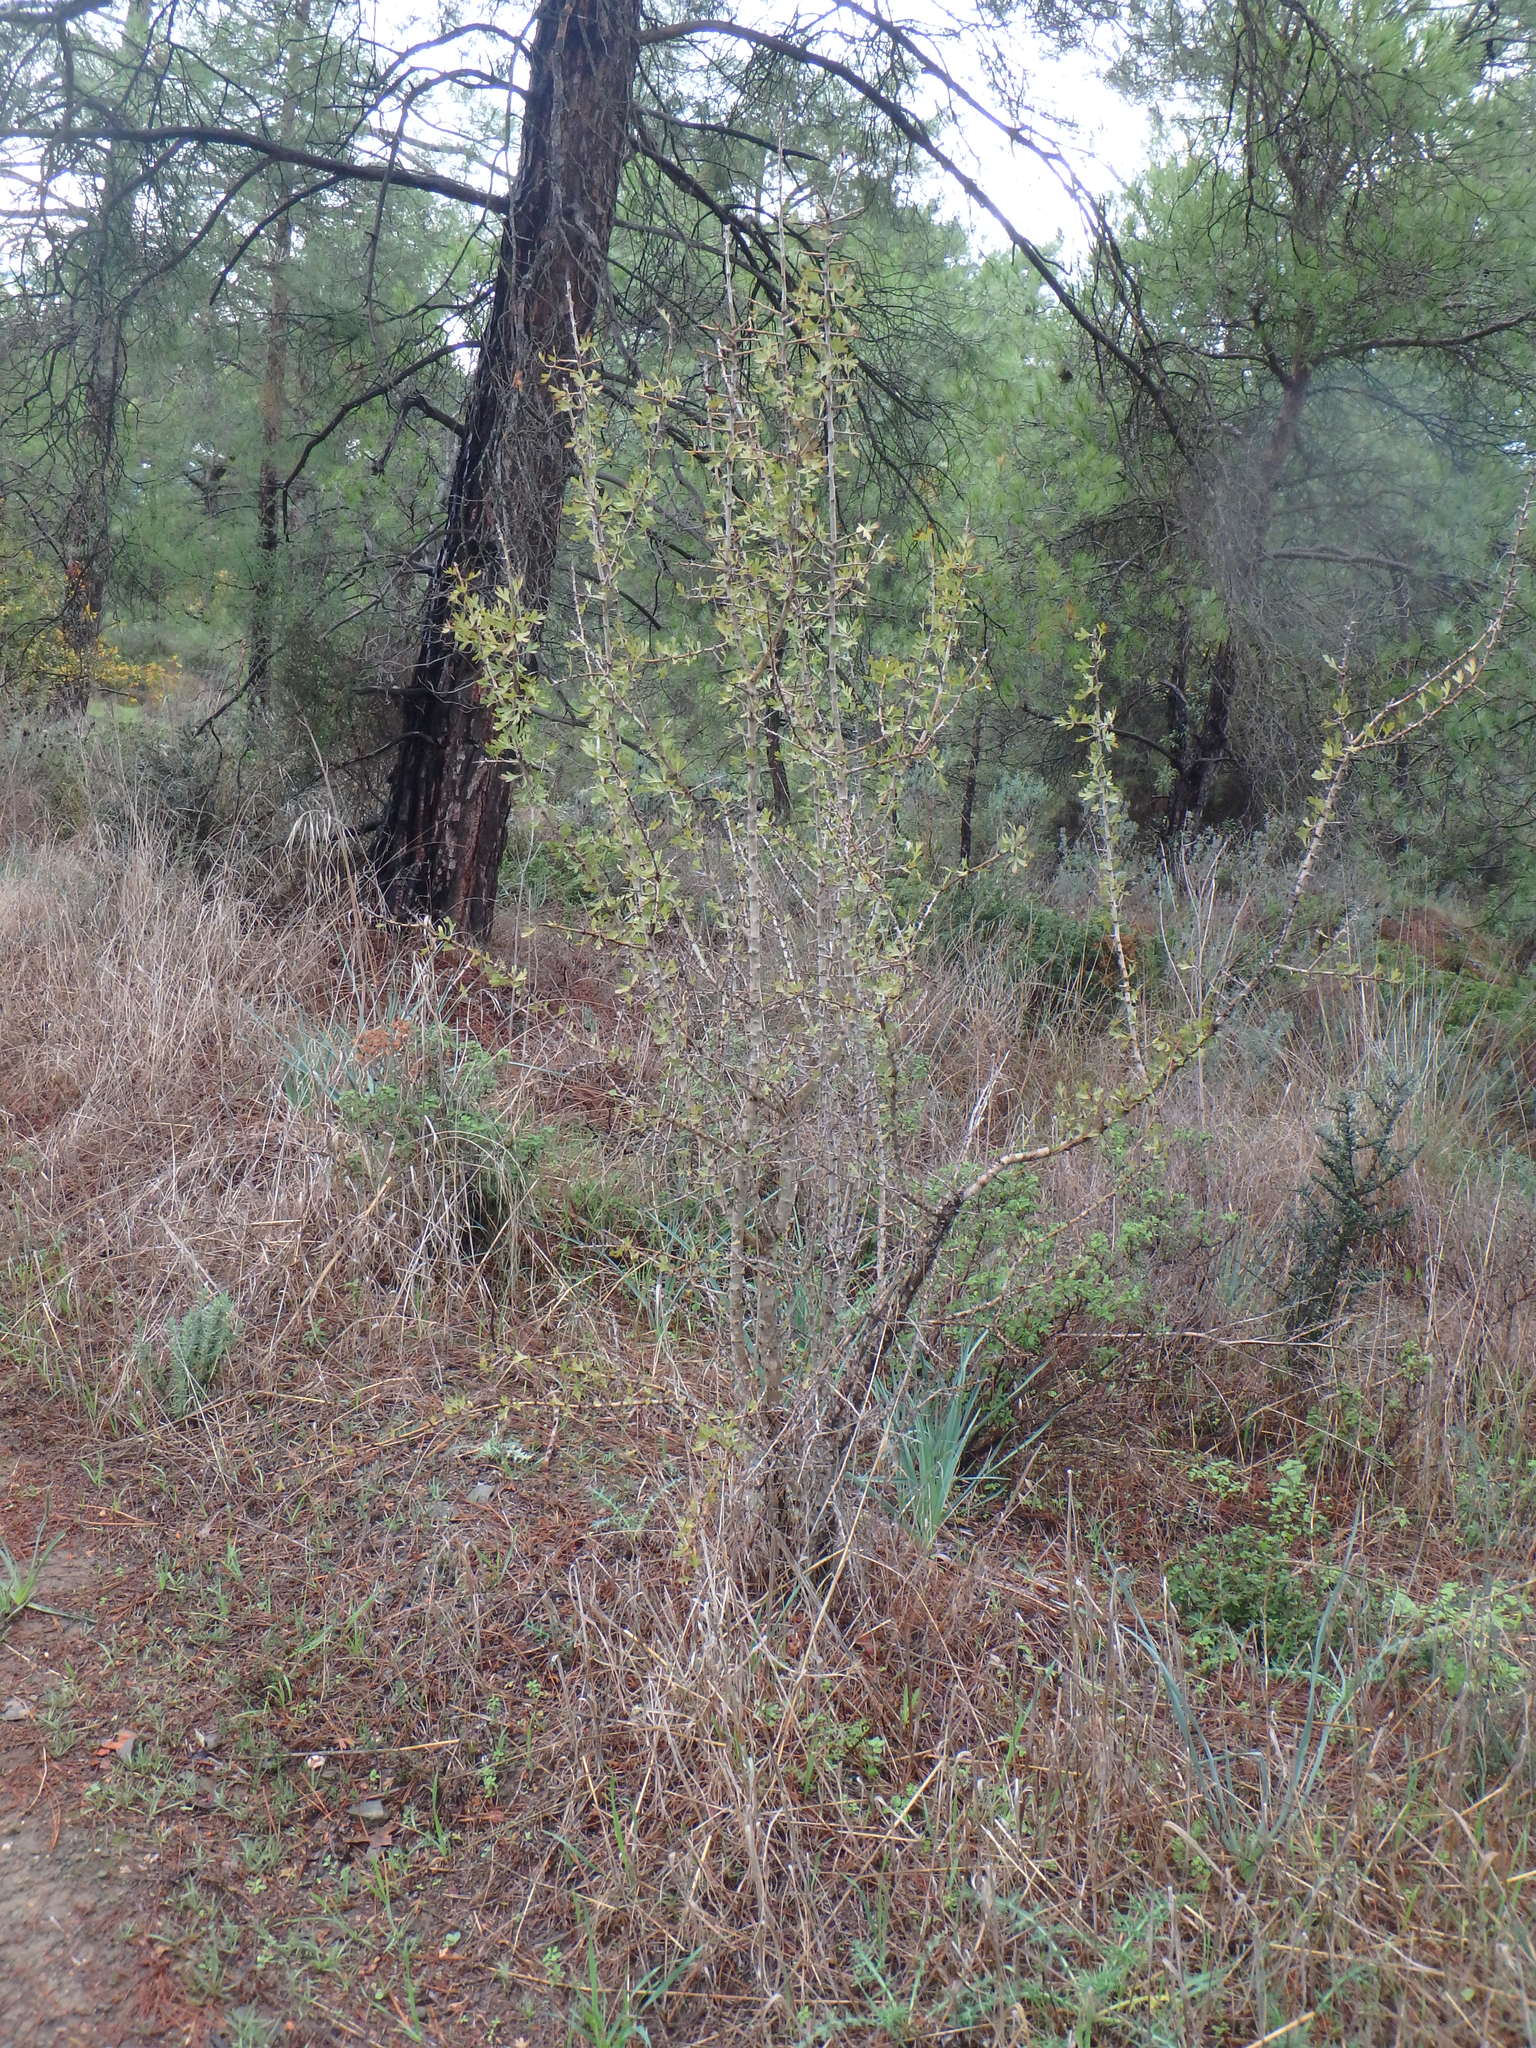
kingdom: Plantae
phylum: Tracheophyta
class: Magnoliopsida
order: Rosales
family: Rosaceae
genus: Crataegus
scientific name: Crataegus azarolus
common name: Azarole
